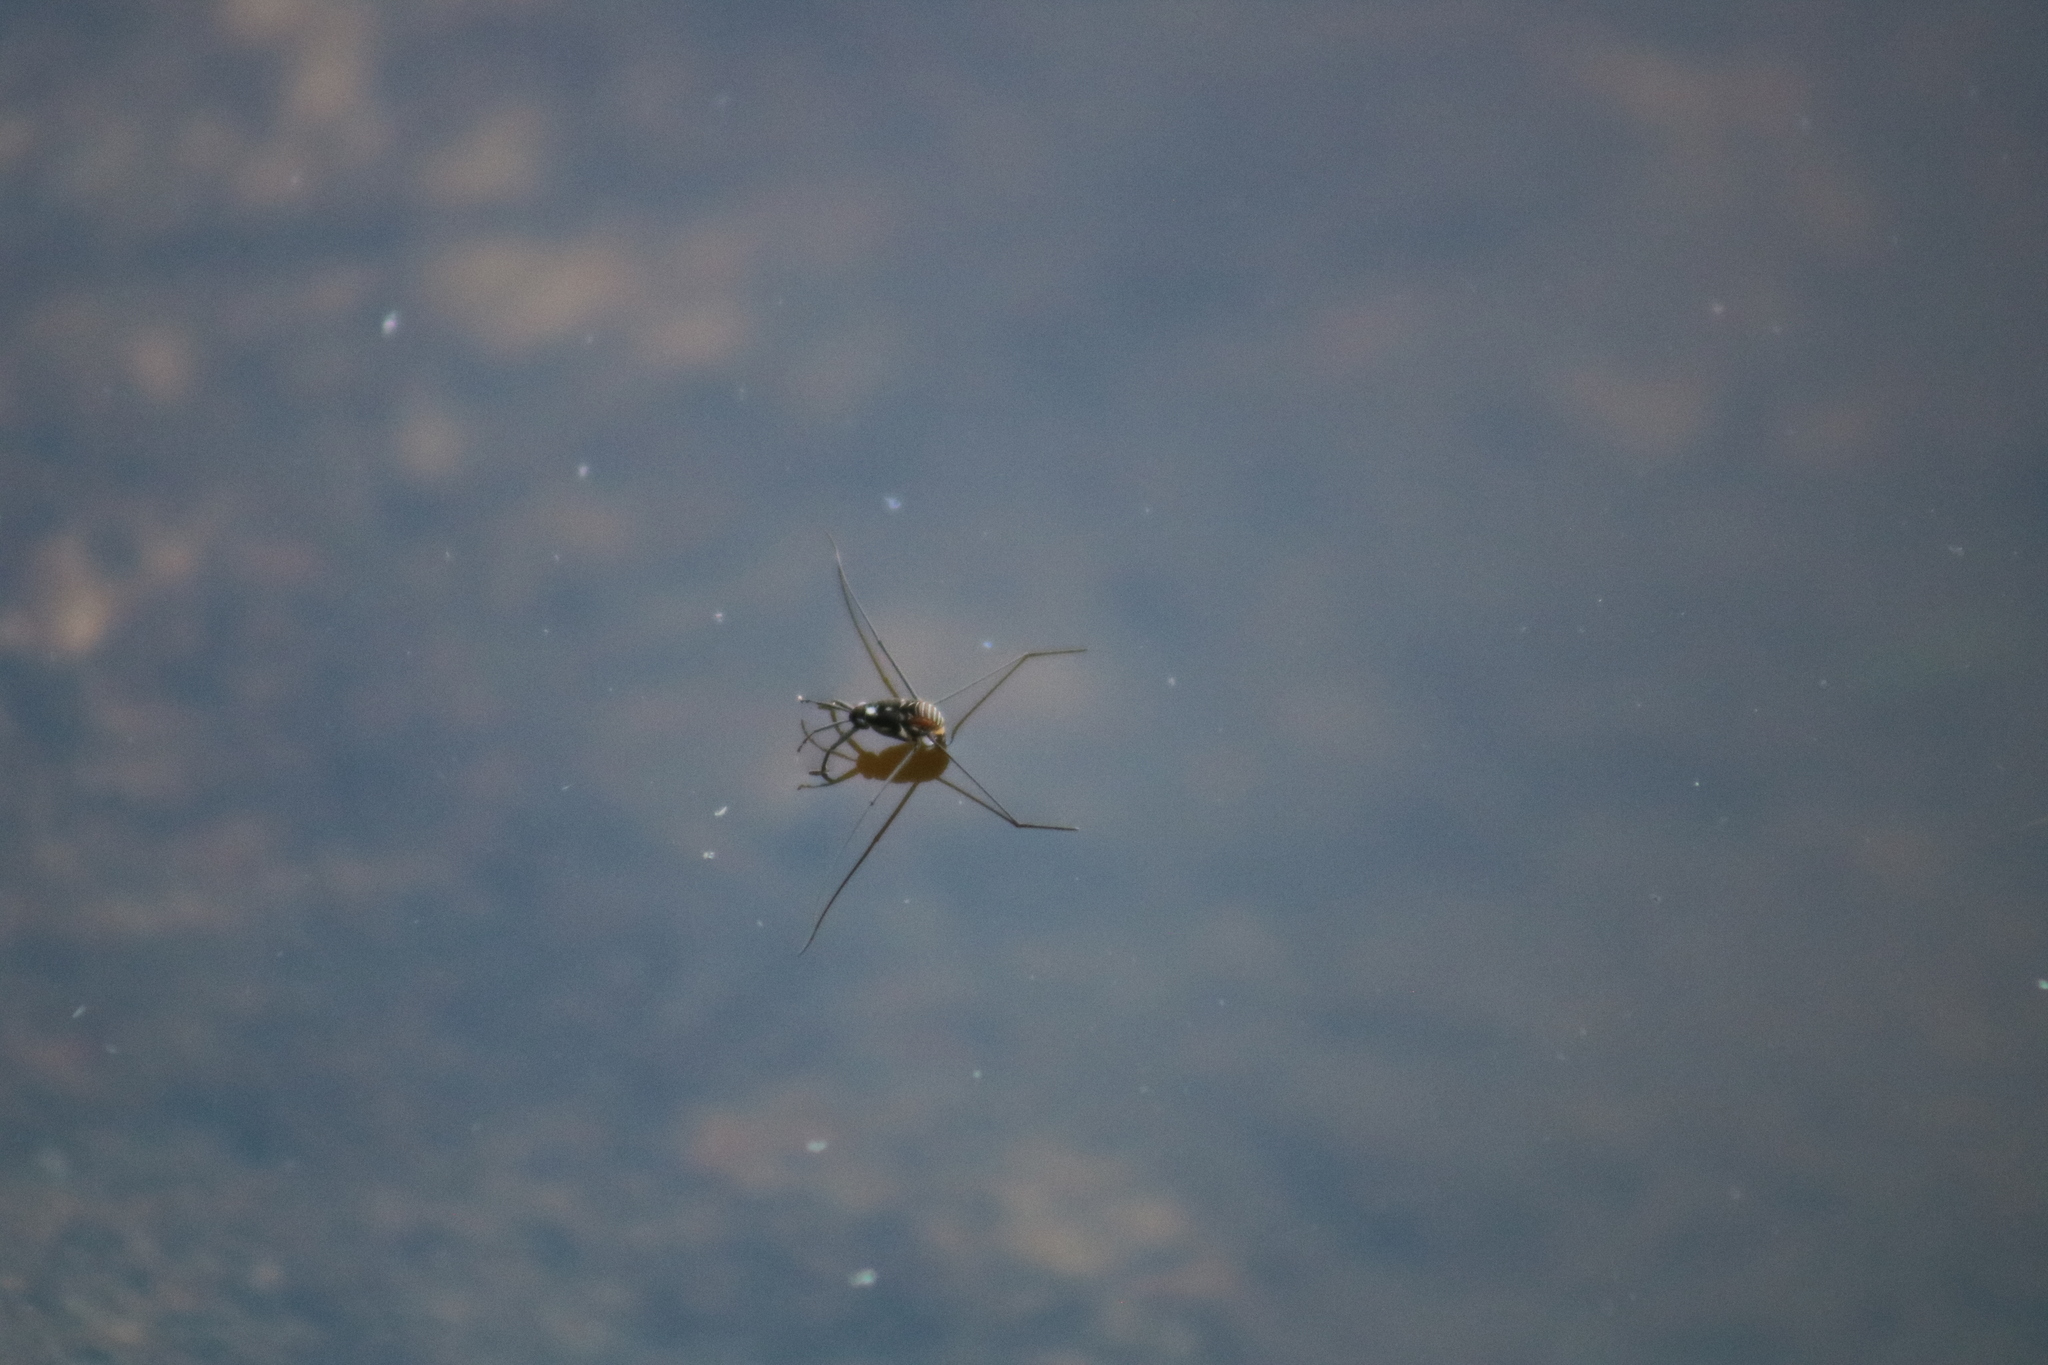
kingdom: Animalia
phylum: Arthropoda
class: Insecta
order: Hemiptera
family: Gerridae
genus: Metrobates
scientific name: Metrobates hesperius
